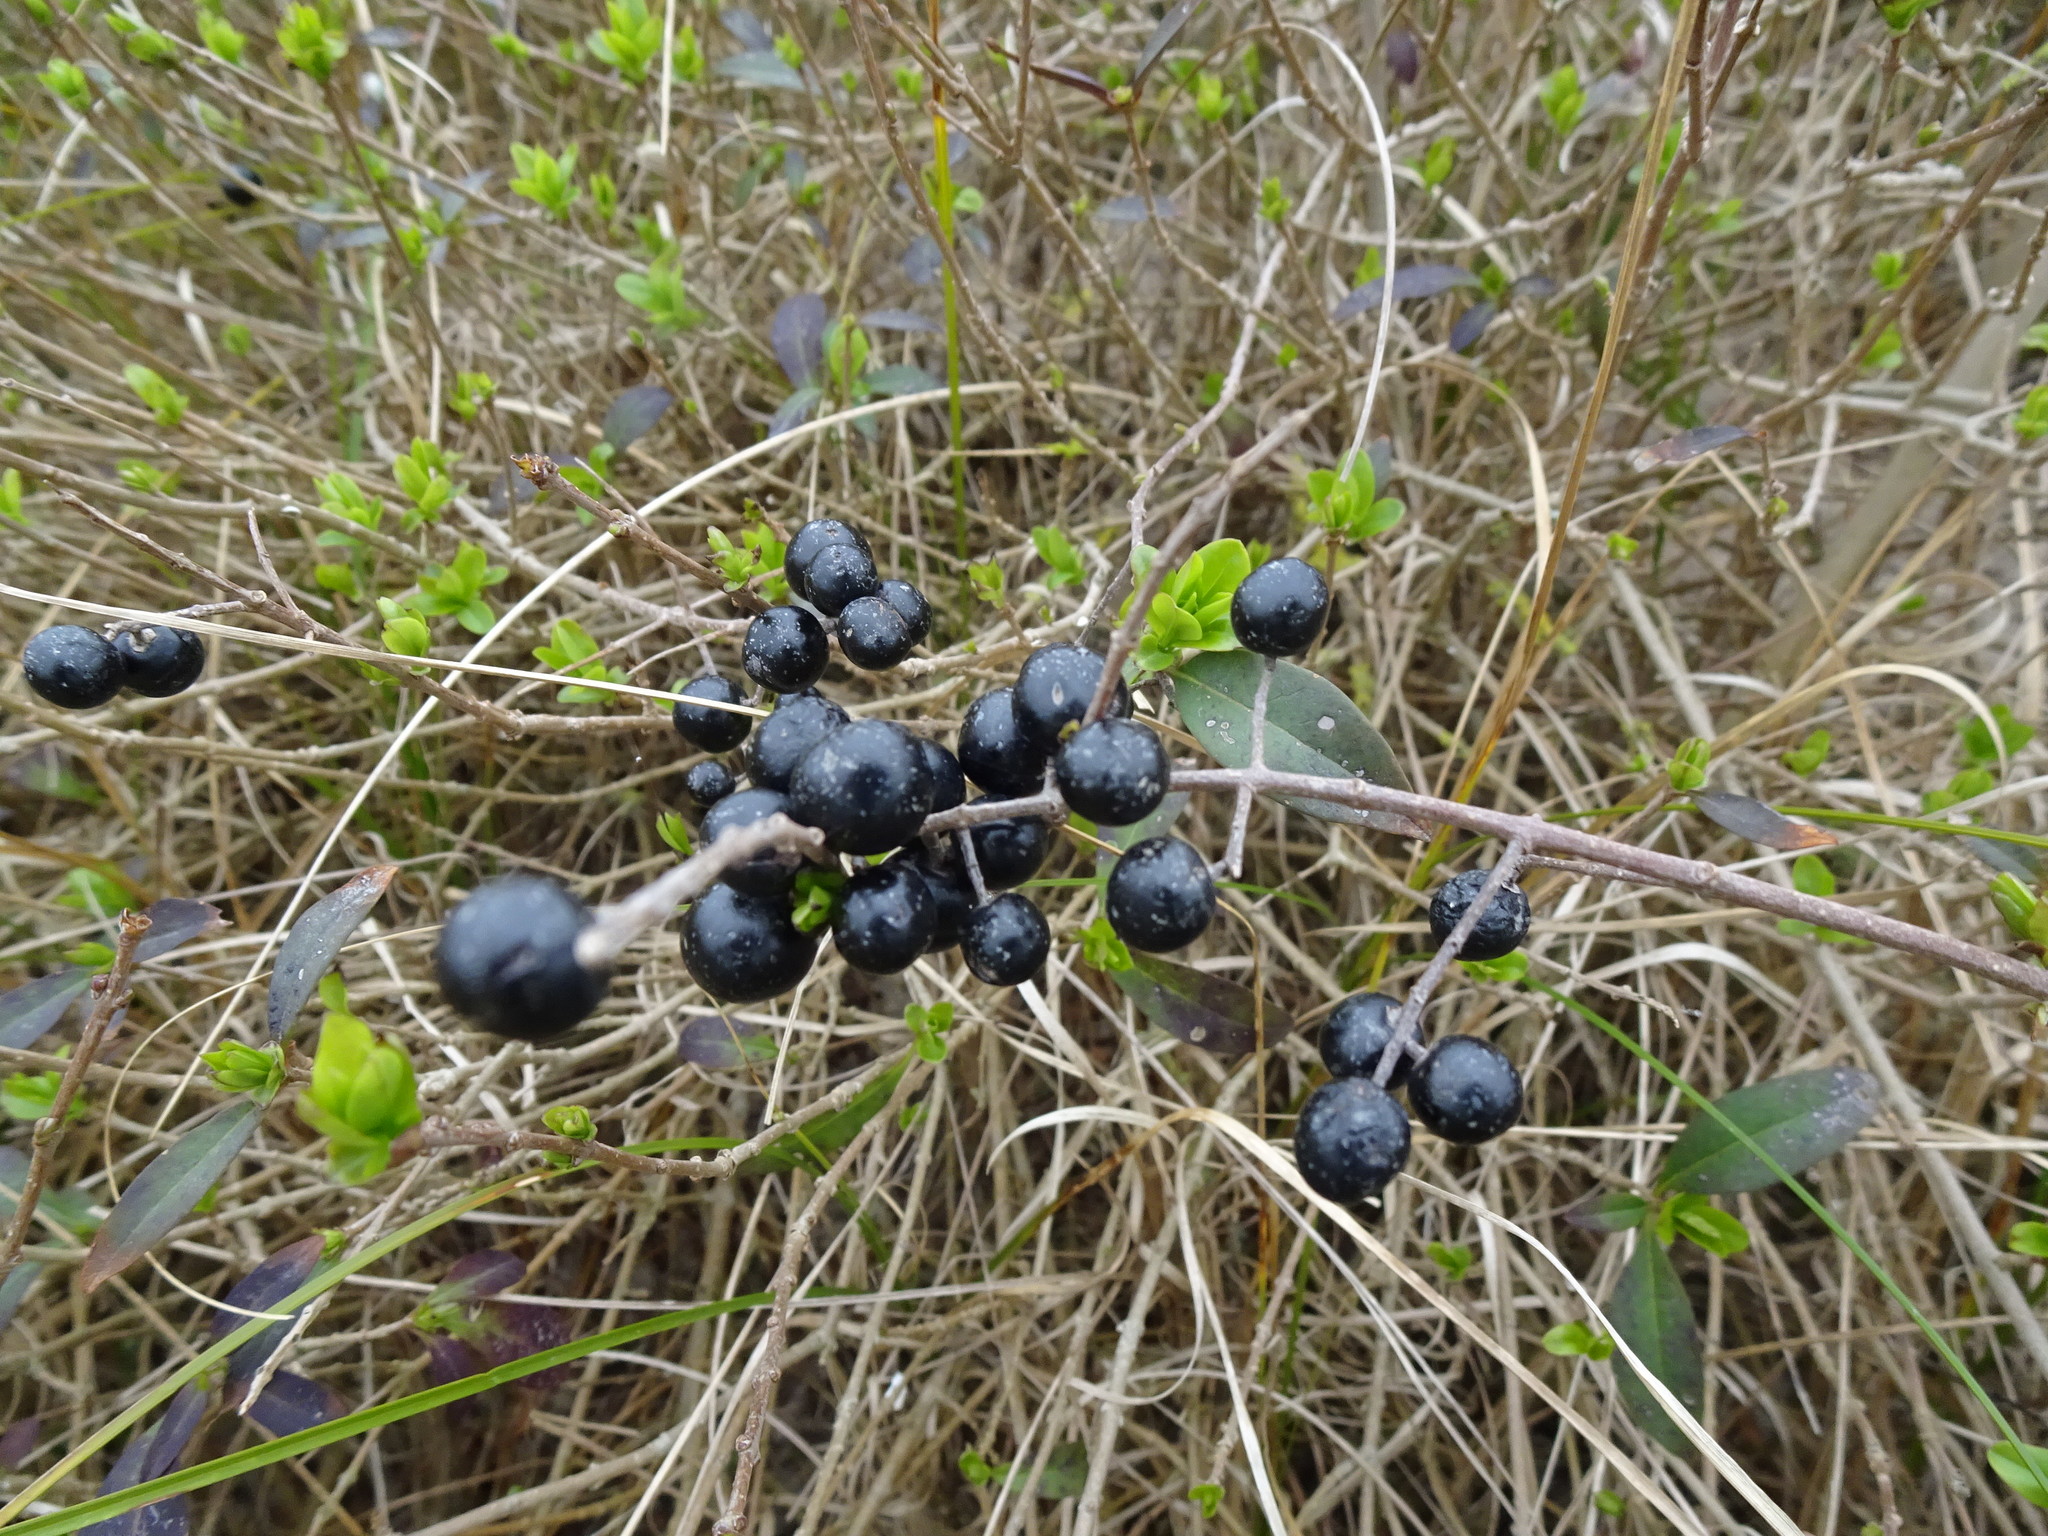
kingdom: Plantae
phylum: Tracheophyta
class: Magnoliopsida
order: Lamiales
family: Oleaceae
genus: Ligustrum
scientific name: Ligustrum vulgare
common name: Wild privet
